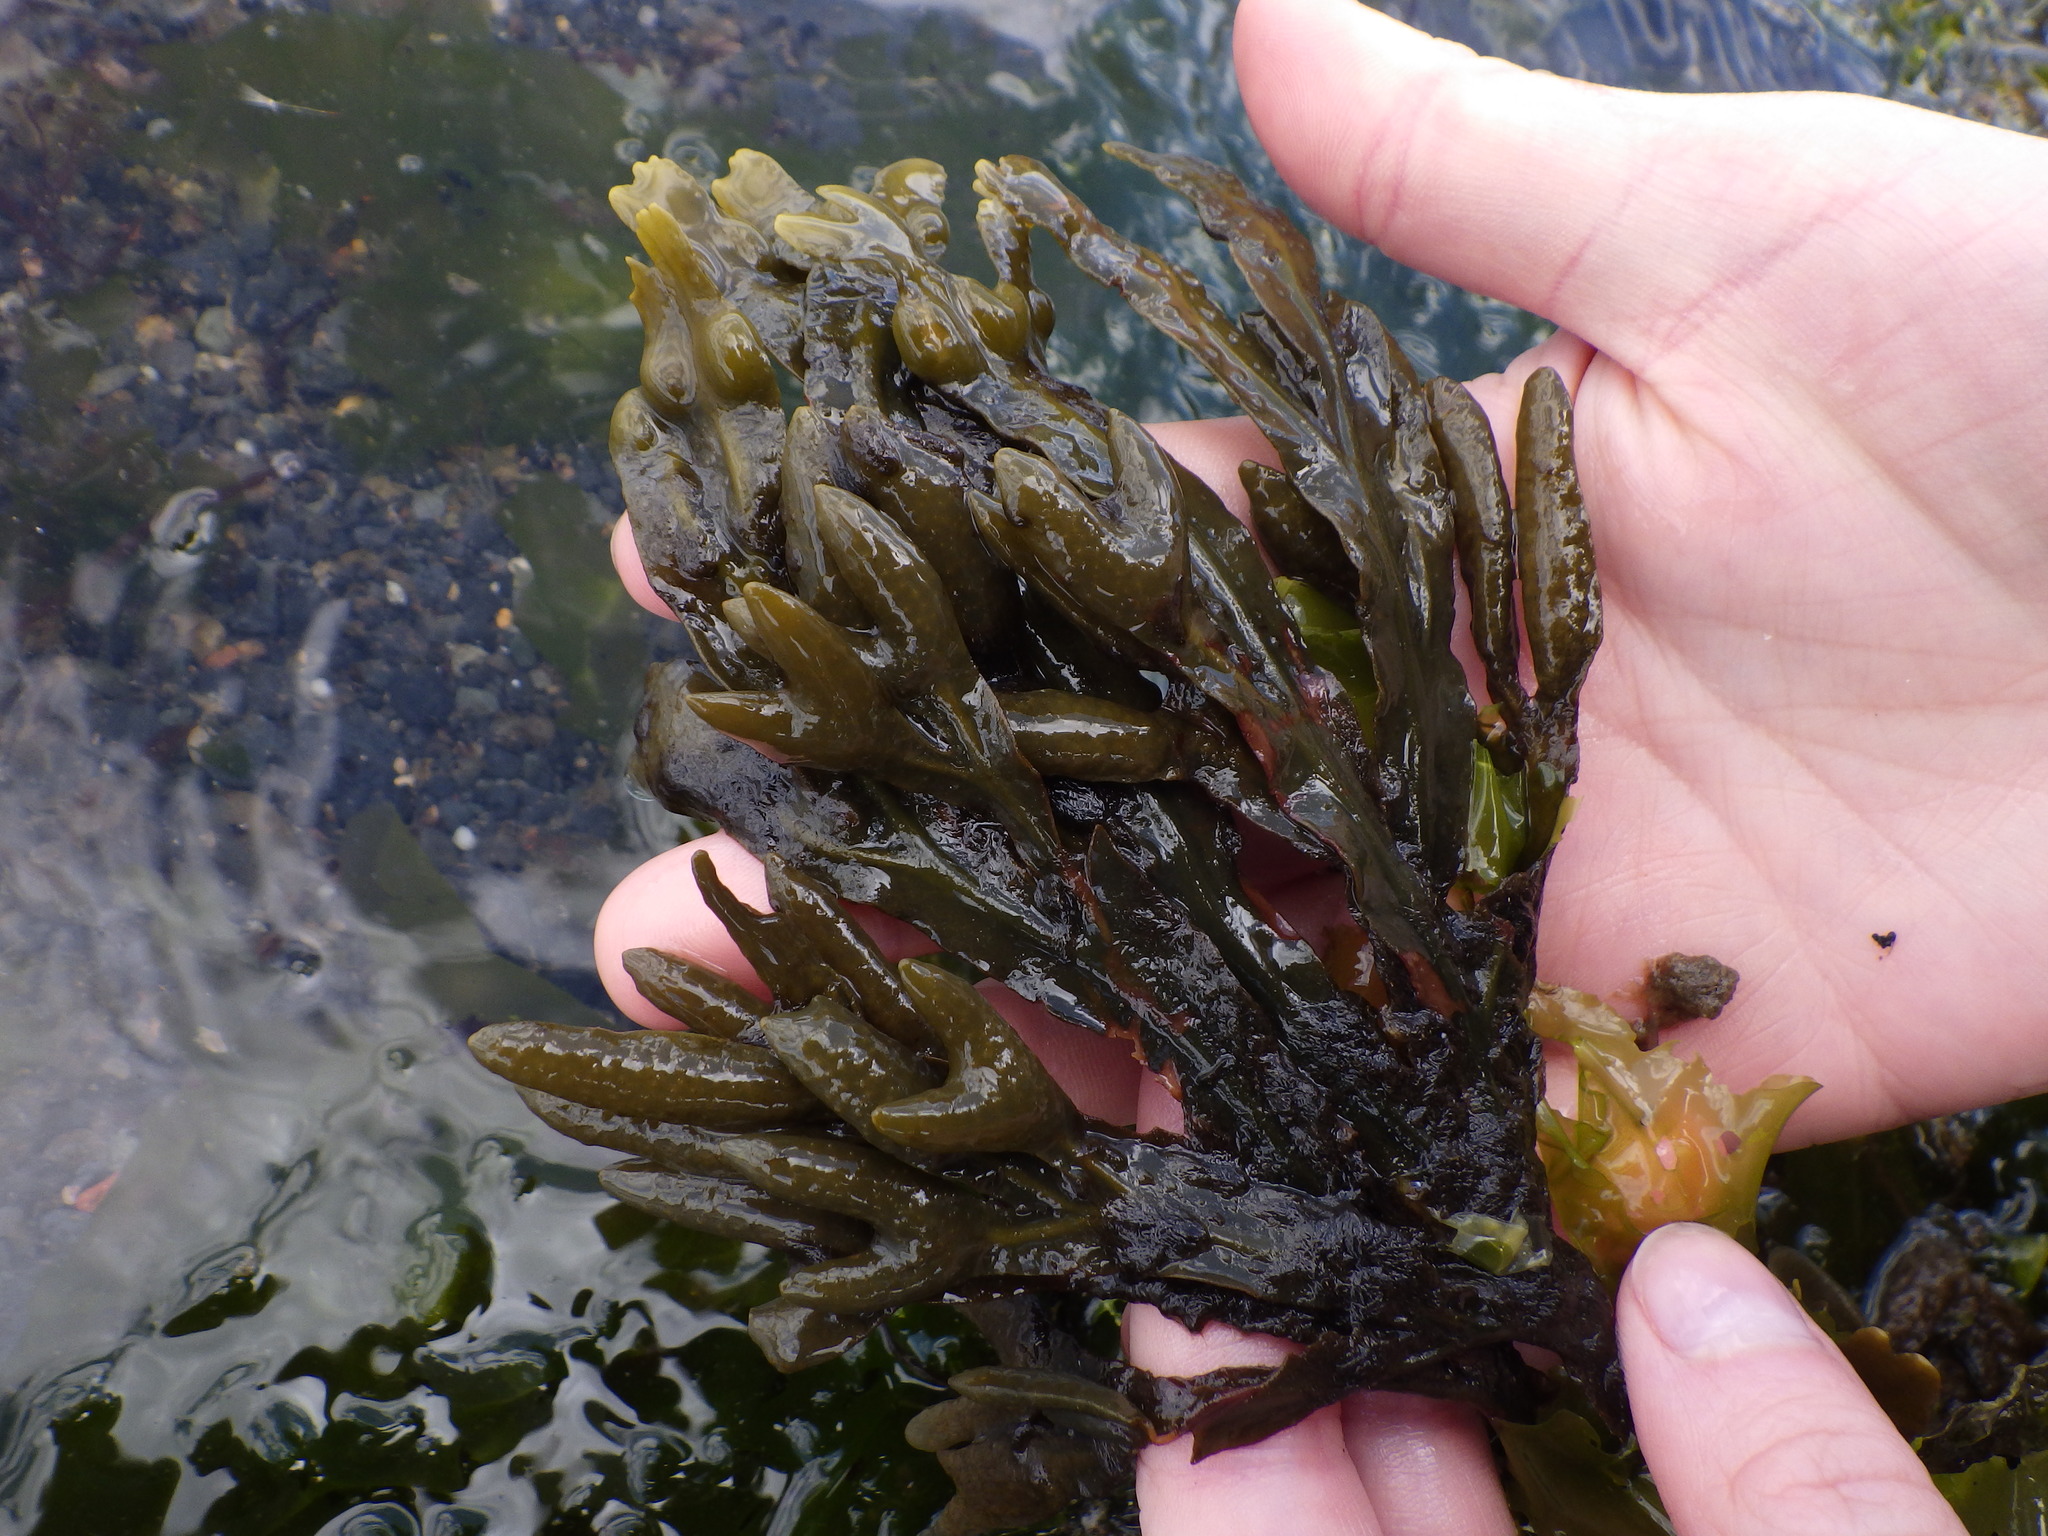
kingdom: Chromista
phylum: Ochrophyta
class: Phaeophyceae
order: Fucales
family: Fucaceae
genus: Fucus
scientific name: Fucus distichus
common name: Rockweed
